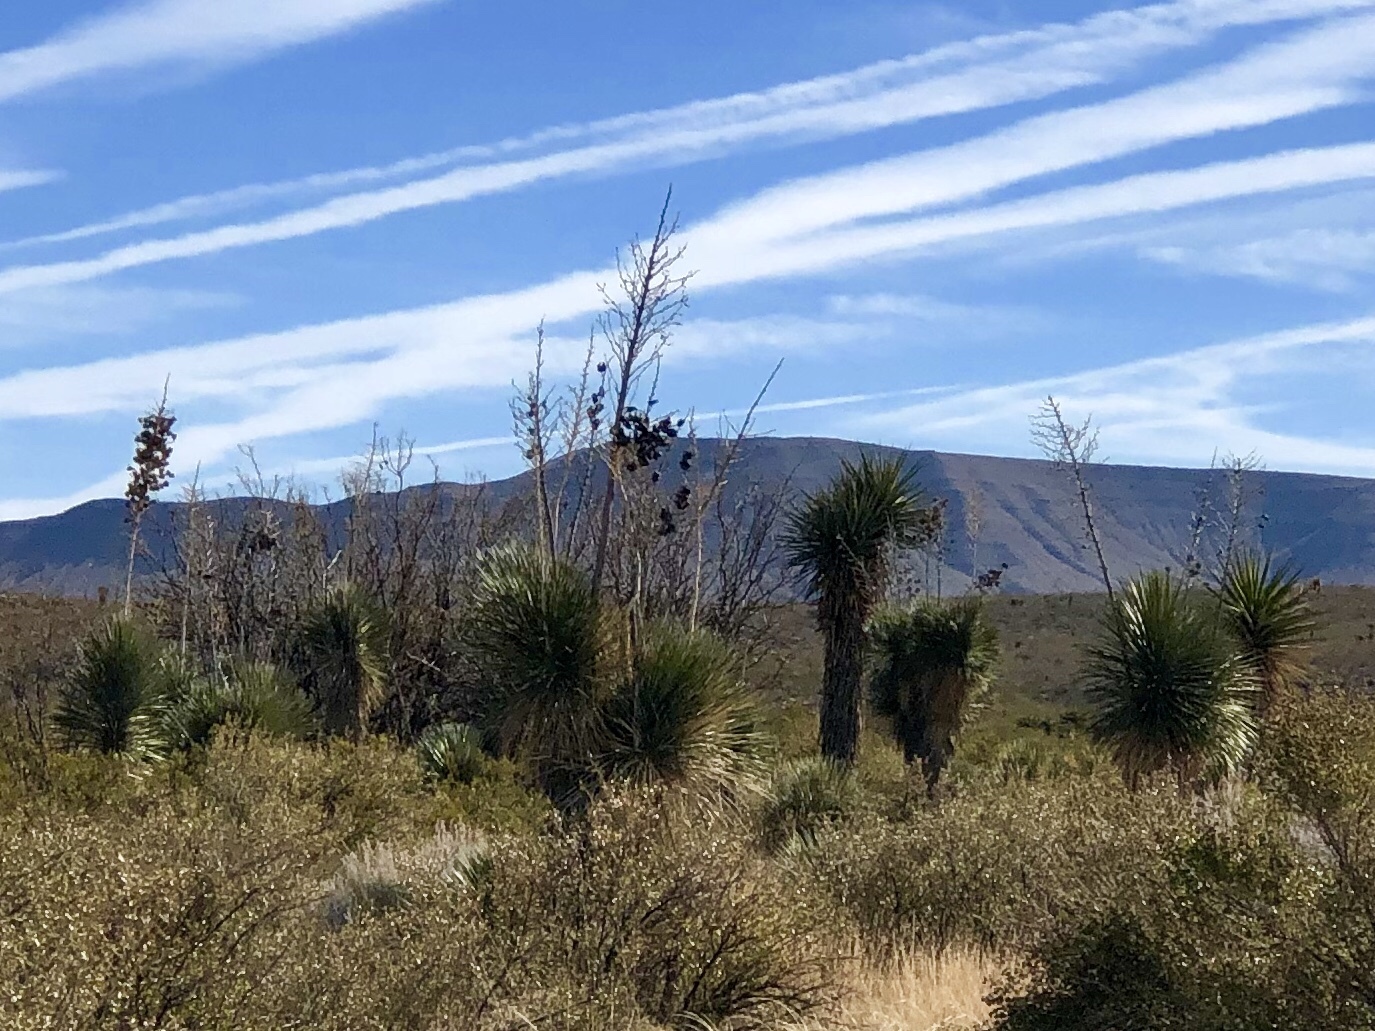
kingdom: Plantae
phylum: Tracheophyta
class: Liliopsida
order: Asparagales
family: Asparagaceae
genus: Yucca
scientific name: Yucca elata
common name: Palmella
